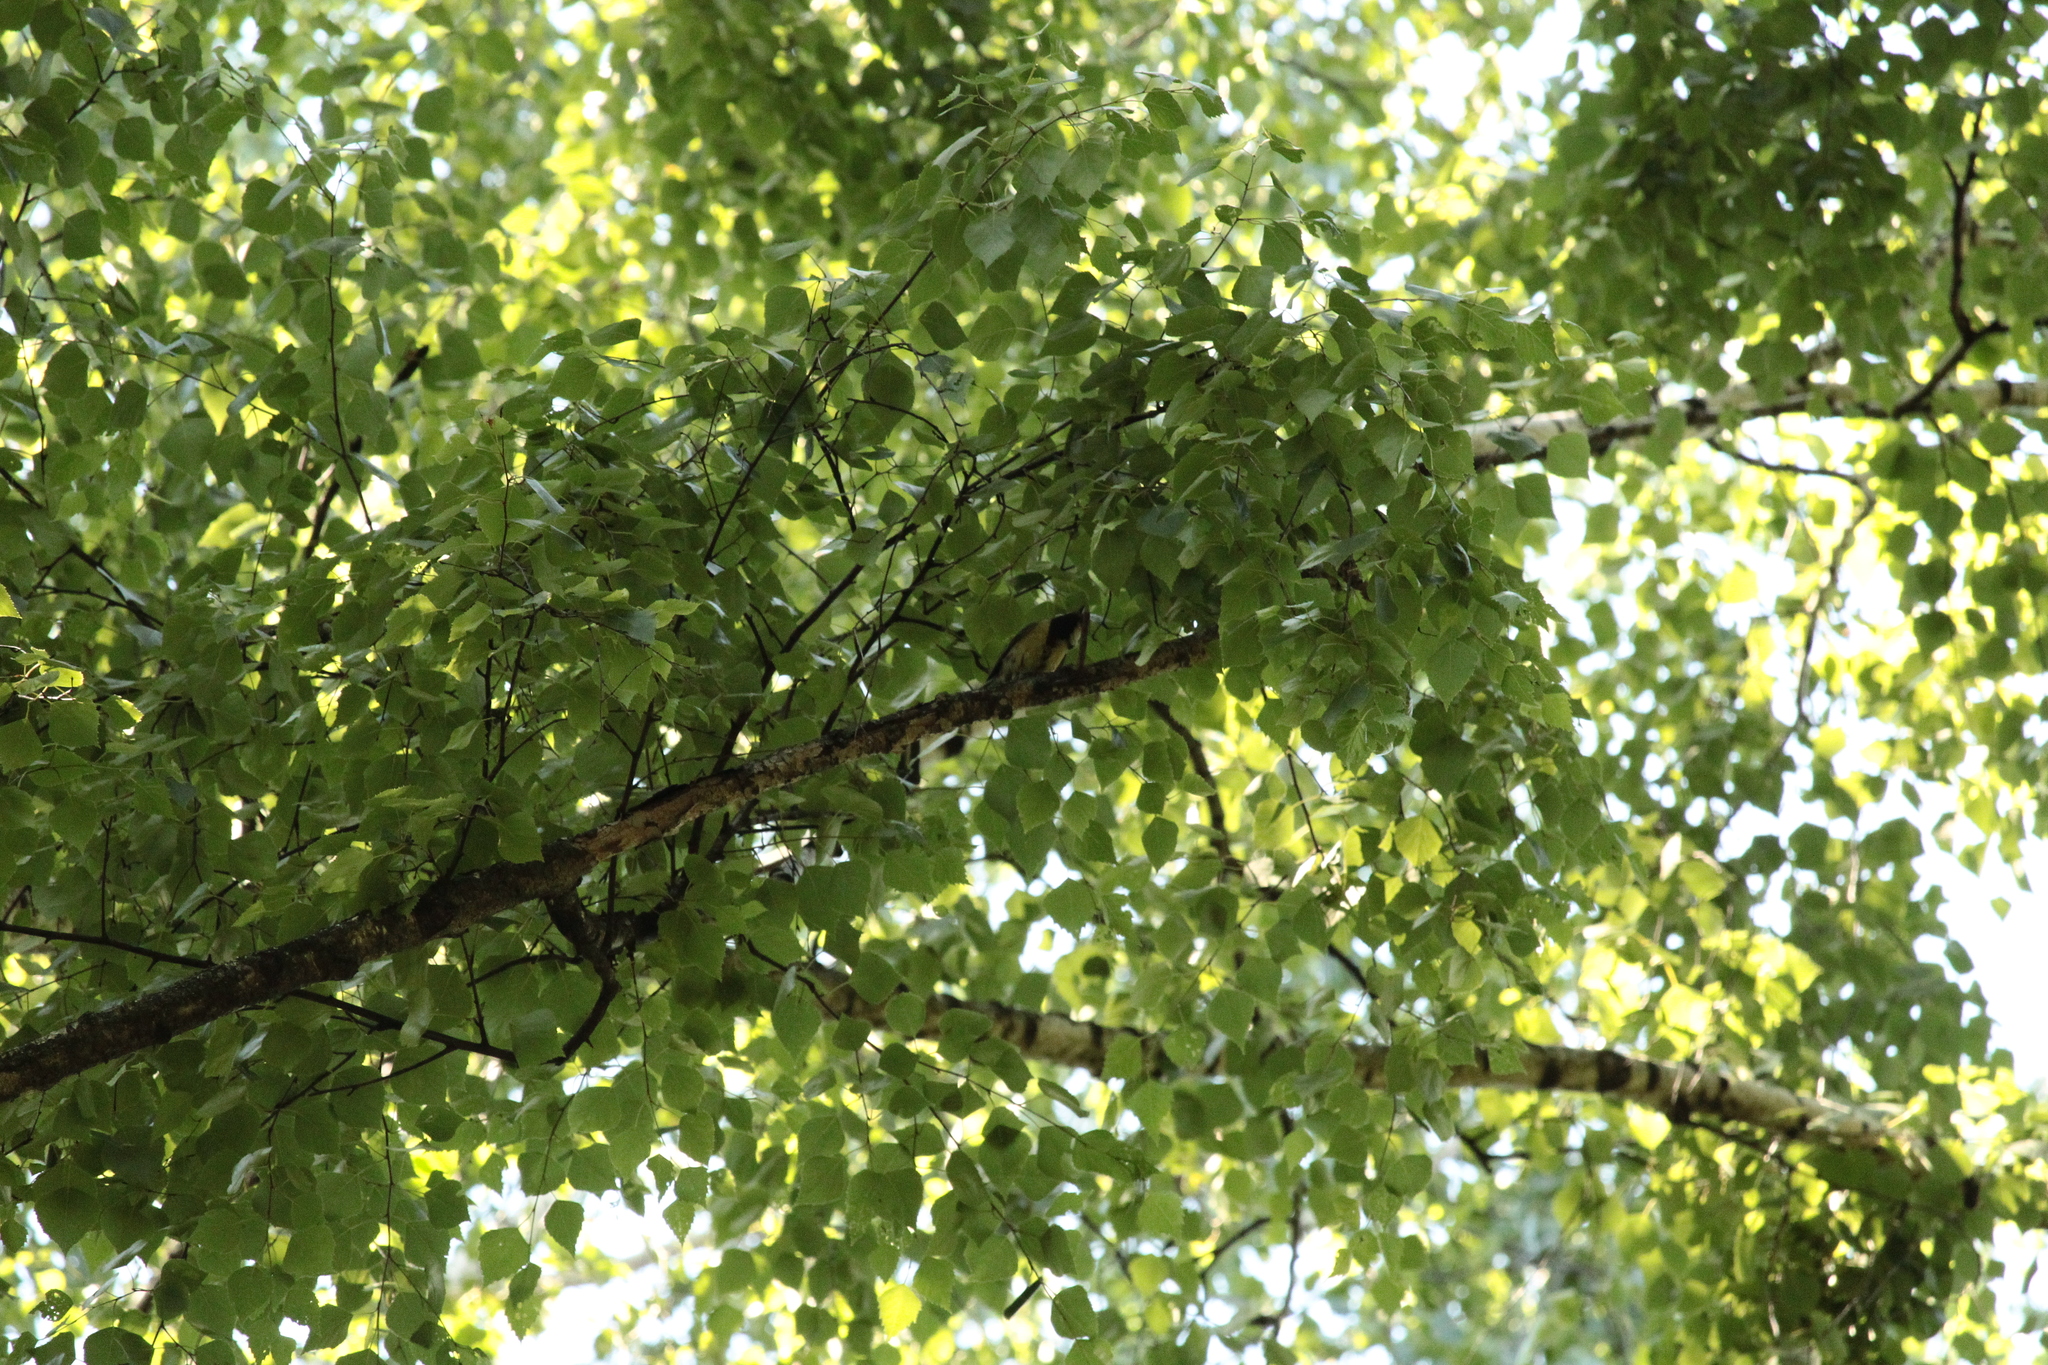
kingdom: Animalia
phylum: Chordata
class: Aves
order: Passeriformes
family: Paridae
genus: Parus
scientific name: Parus major
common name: Great tit
